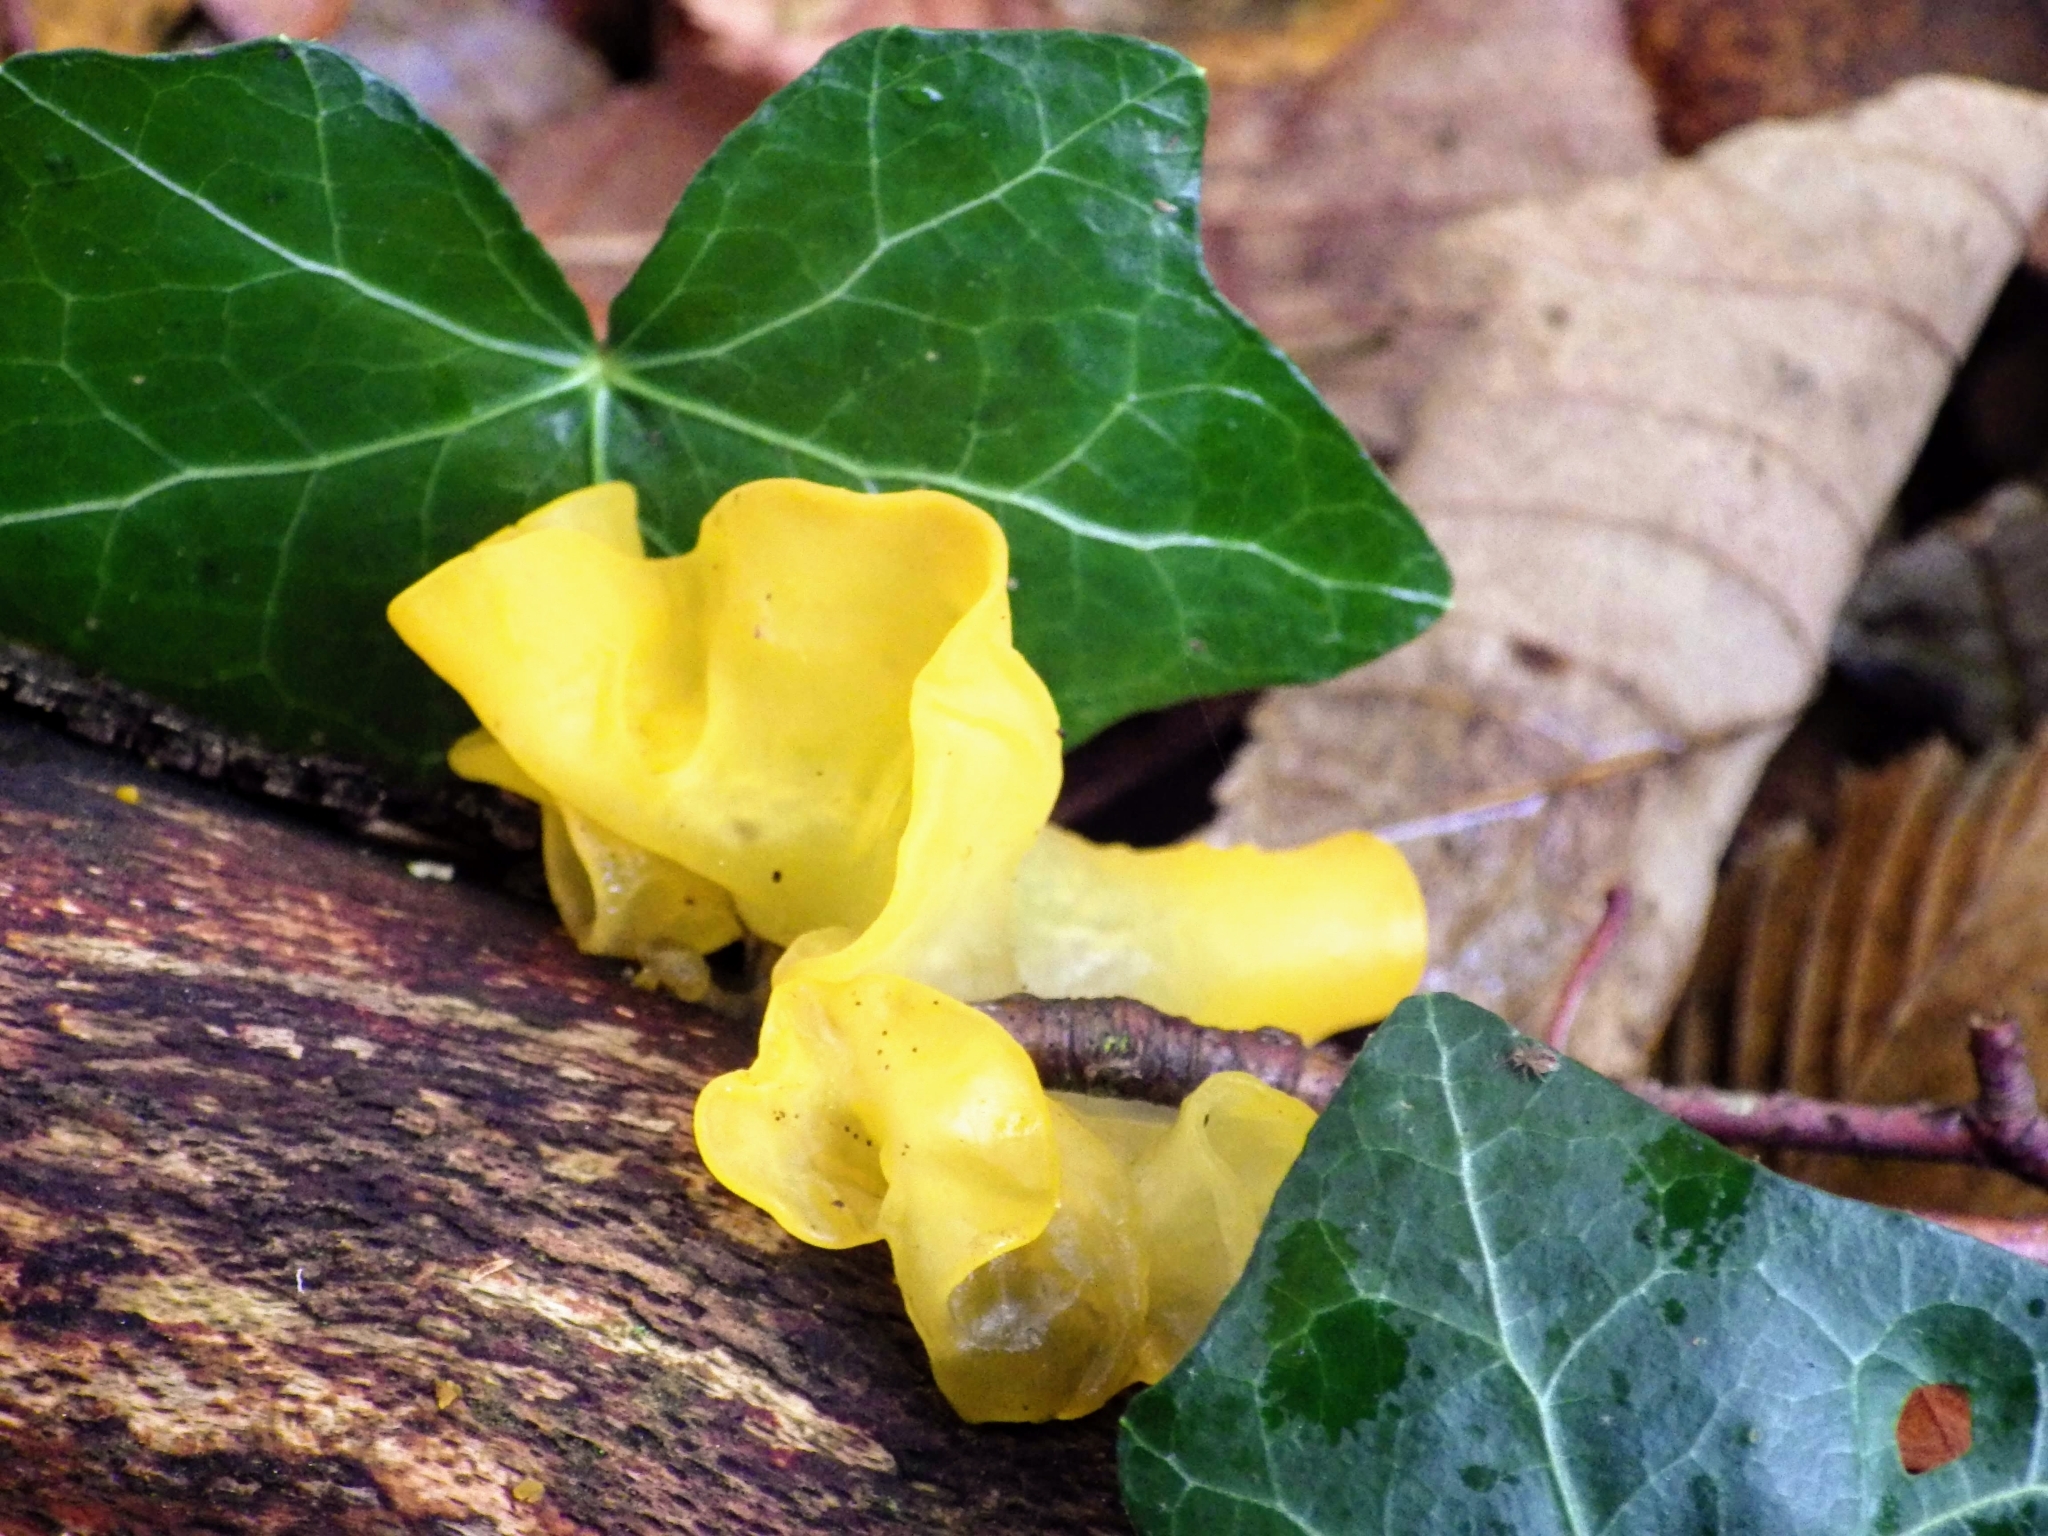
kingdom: Fungi
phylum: Basidiomycota
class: Tremellomycetes
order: Tremellales
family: Tremellaceae
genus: Tremella
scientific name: Tremella mesenterica
